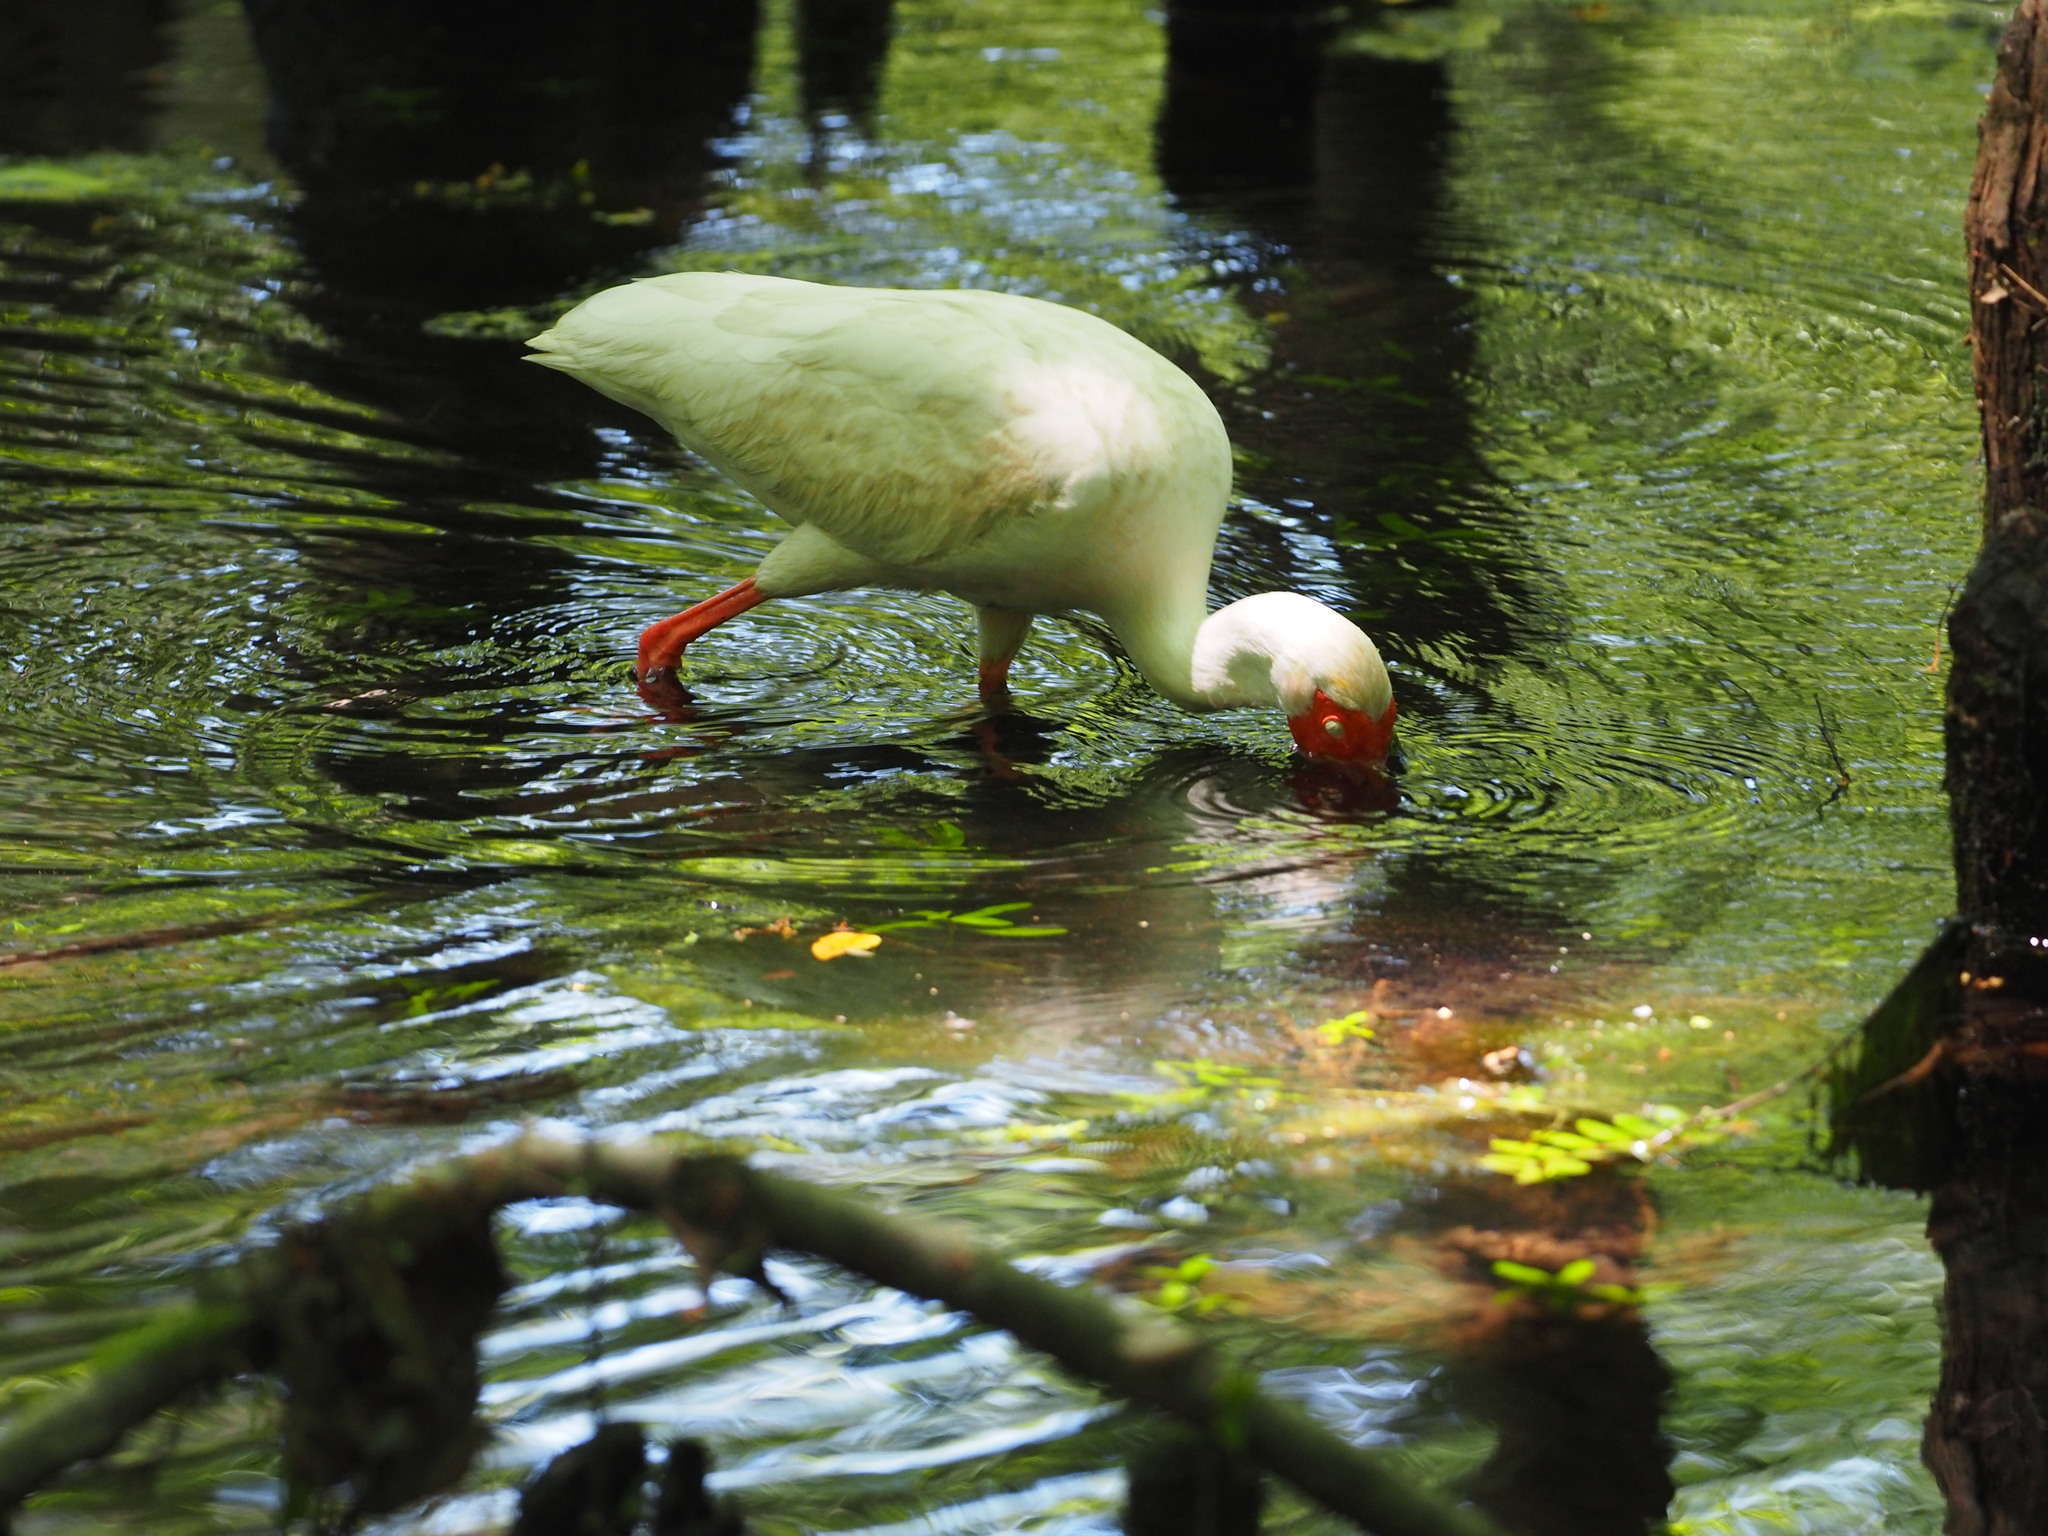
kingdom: Animalia
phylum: Chordata
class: Aves
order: Pelecaniformes
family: Threskiornithidae
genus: Eudocimus
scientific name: Eudocimus albus
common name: White ibis
